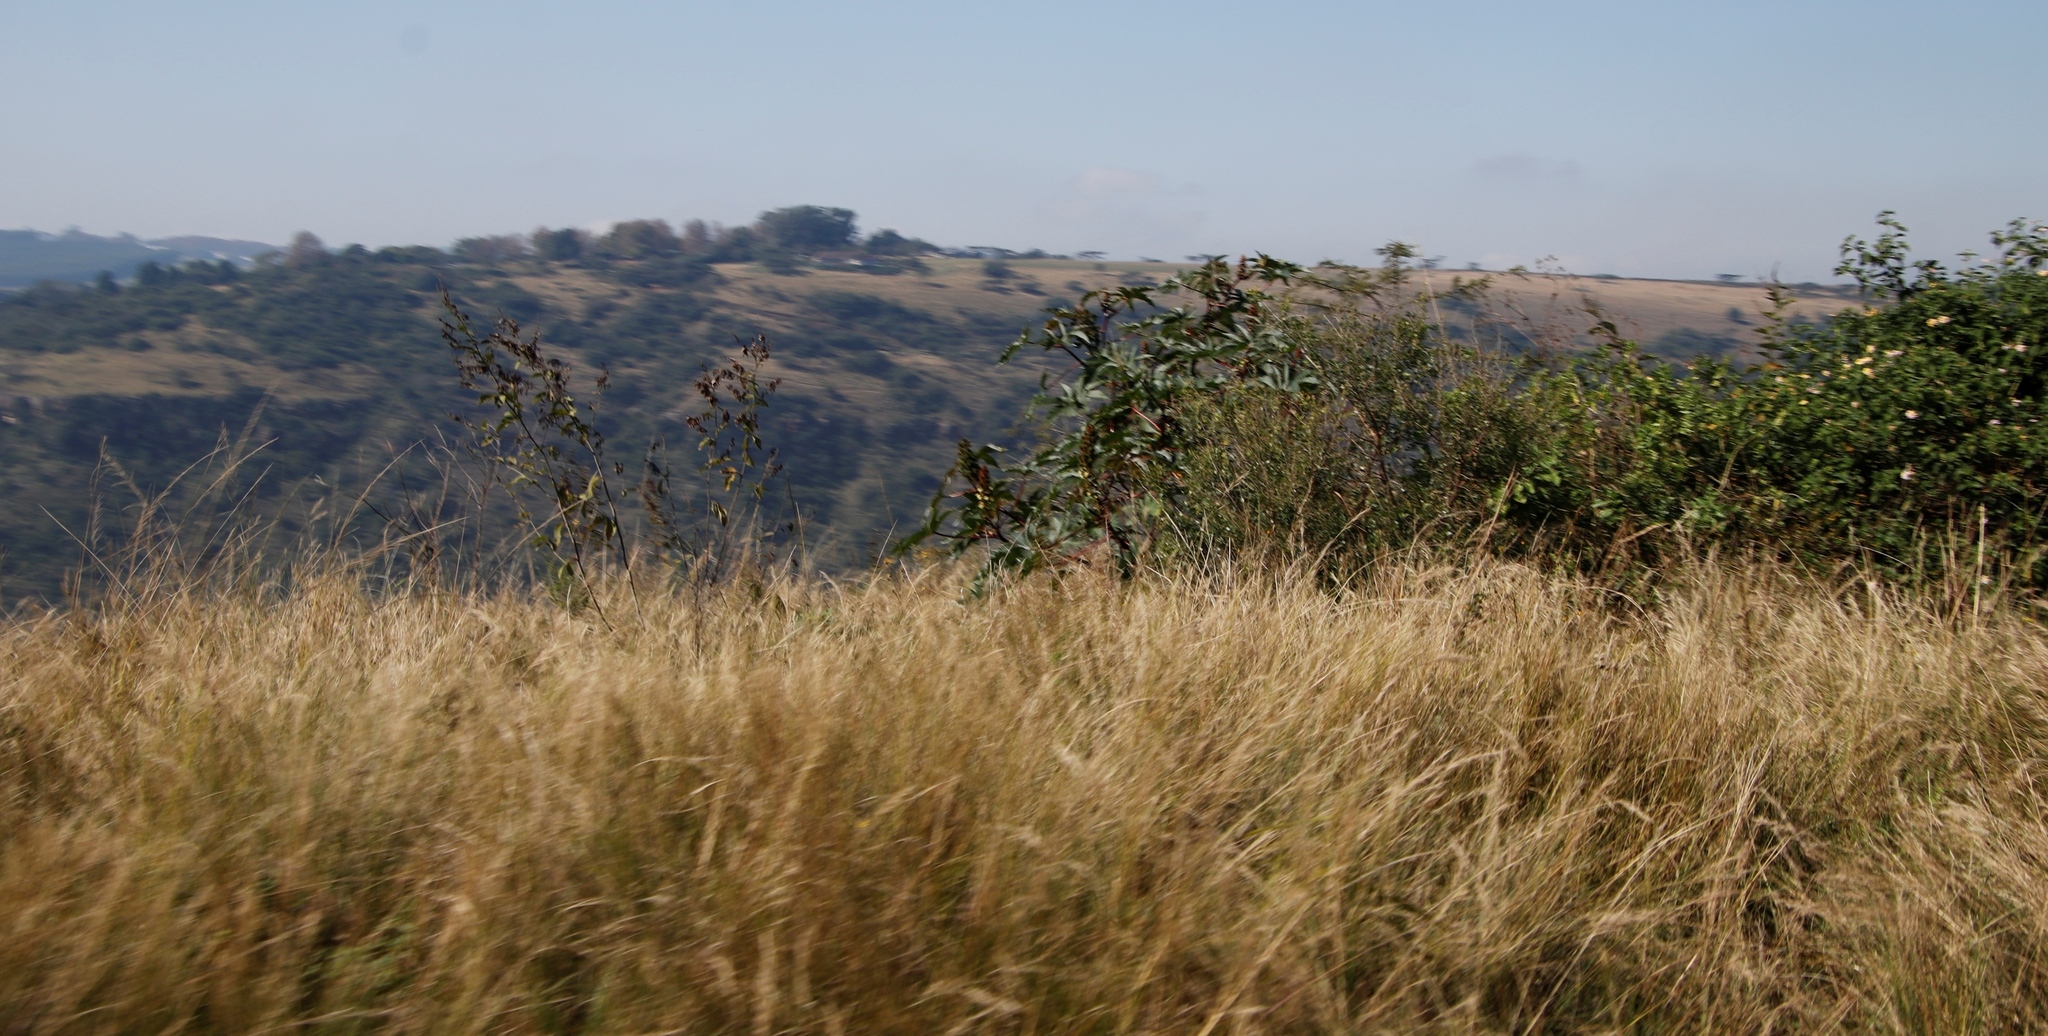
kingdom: Plantae
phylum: Tracheophyta
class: Magnoliopsida
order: Malpighiales
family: Euphorbiaceae
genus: Ricinus
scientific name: Ricinus communis
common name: Castor-oil-plant
